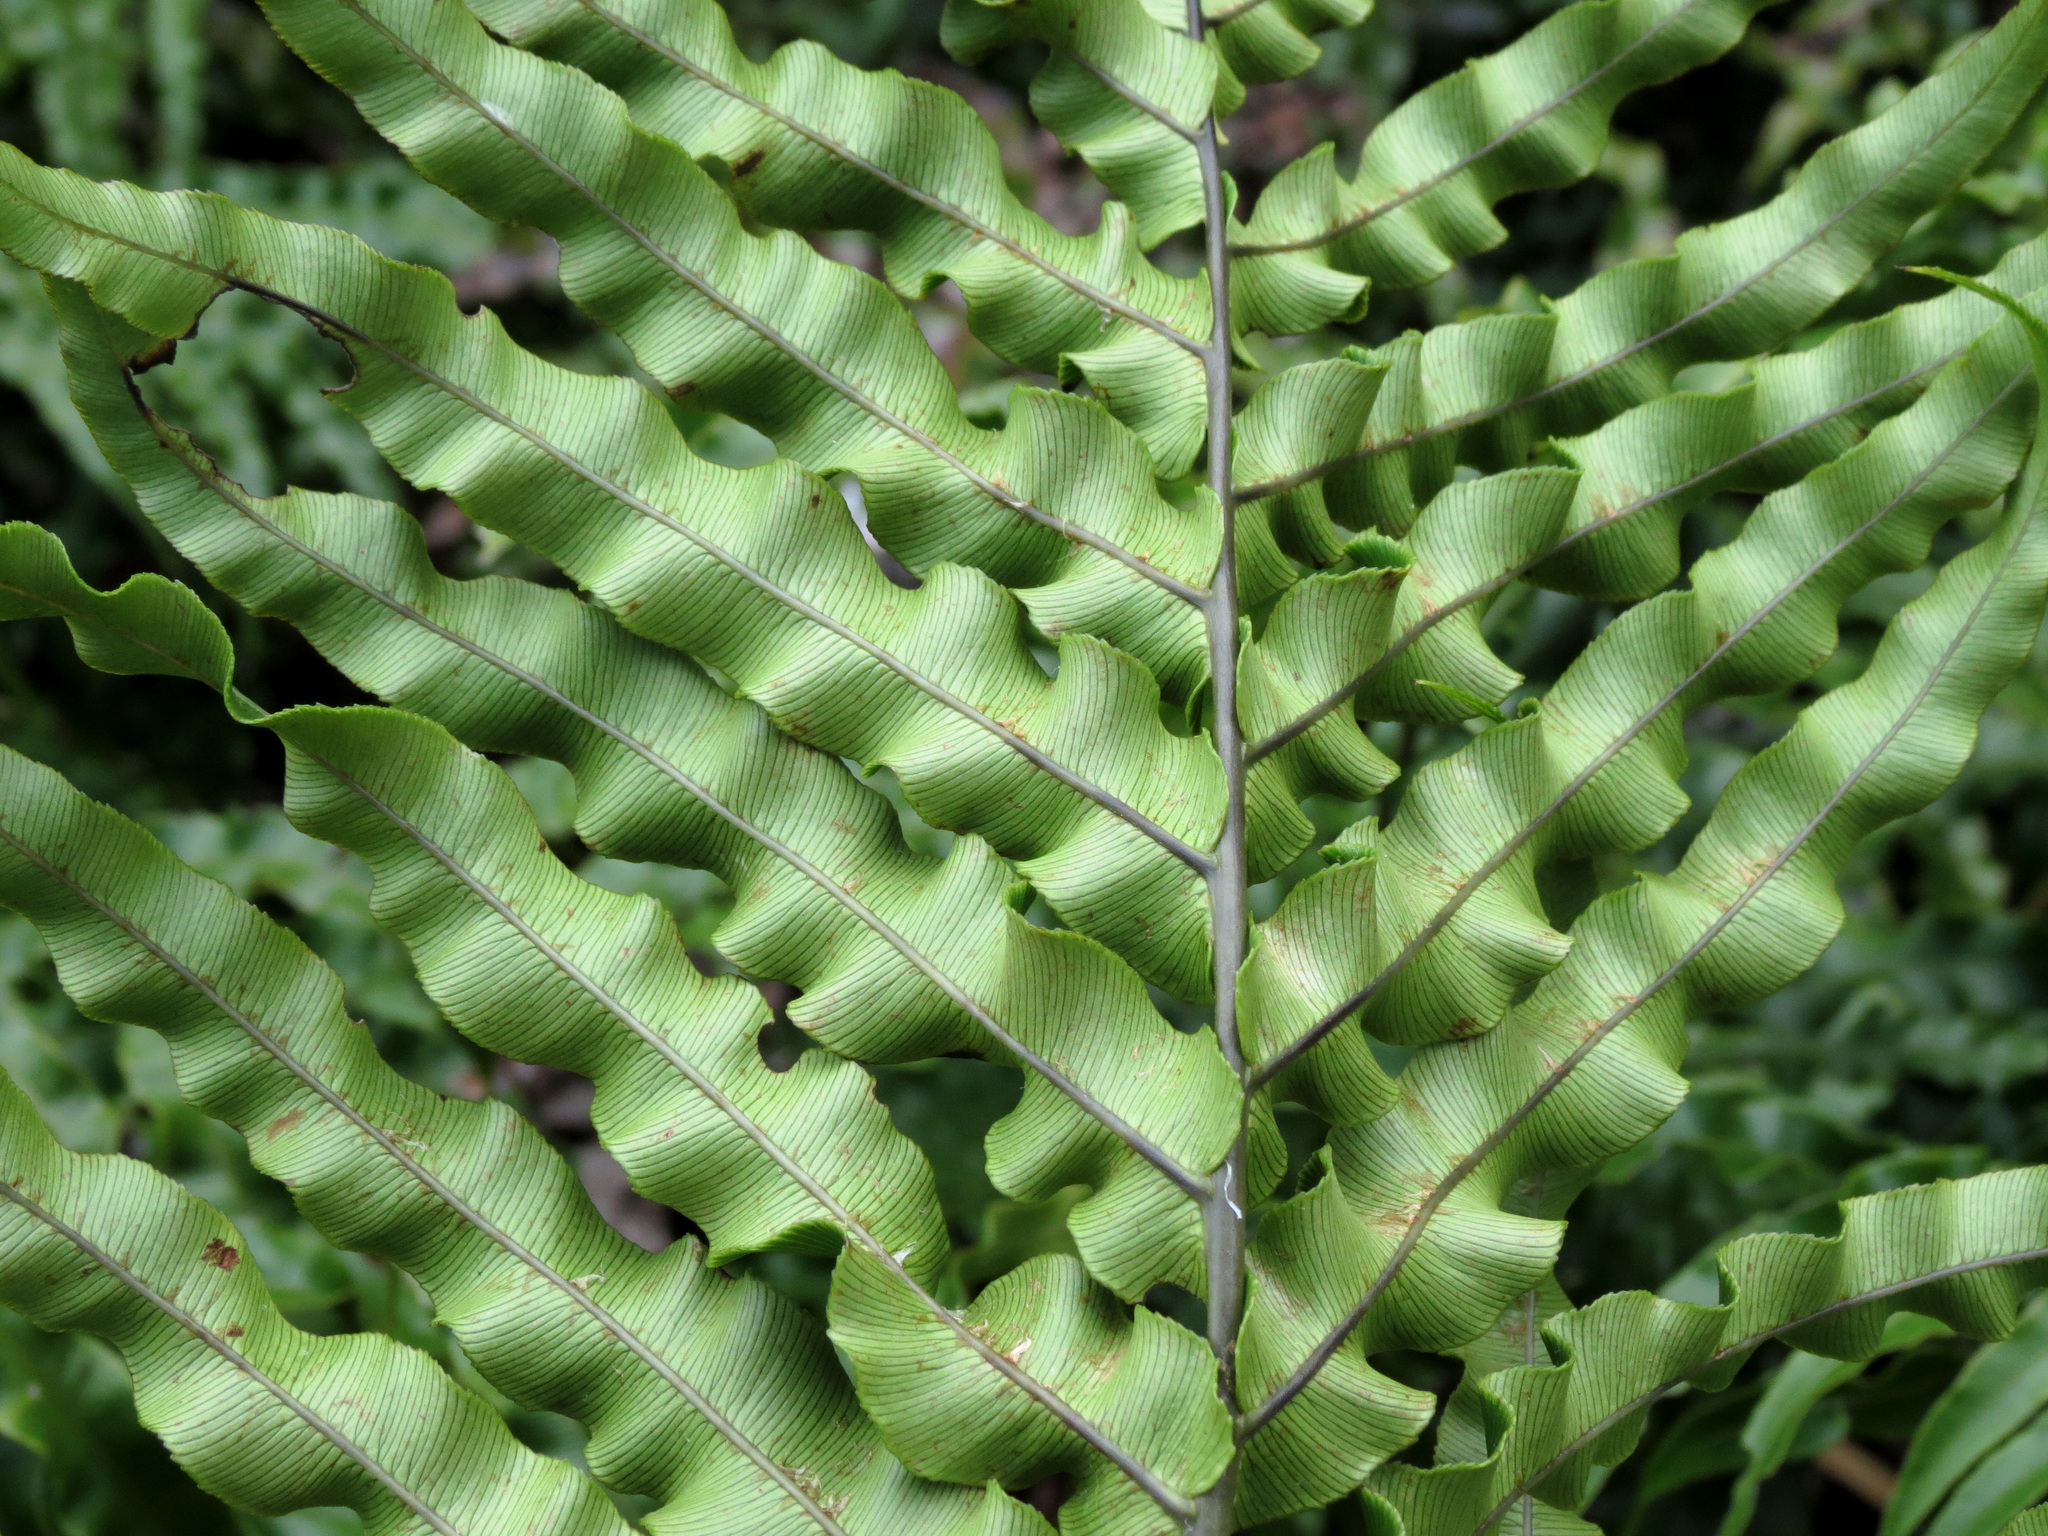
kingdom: Plantae
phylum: Tracheophyta
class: Polypodiopsida
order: Polypodiales
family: Blechnaceae
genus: Parablechnum
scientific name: Parablechnum novae-zelandiae
